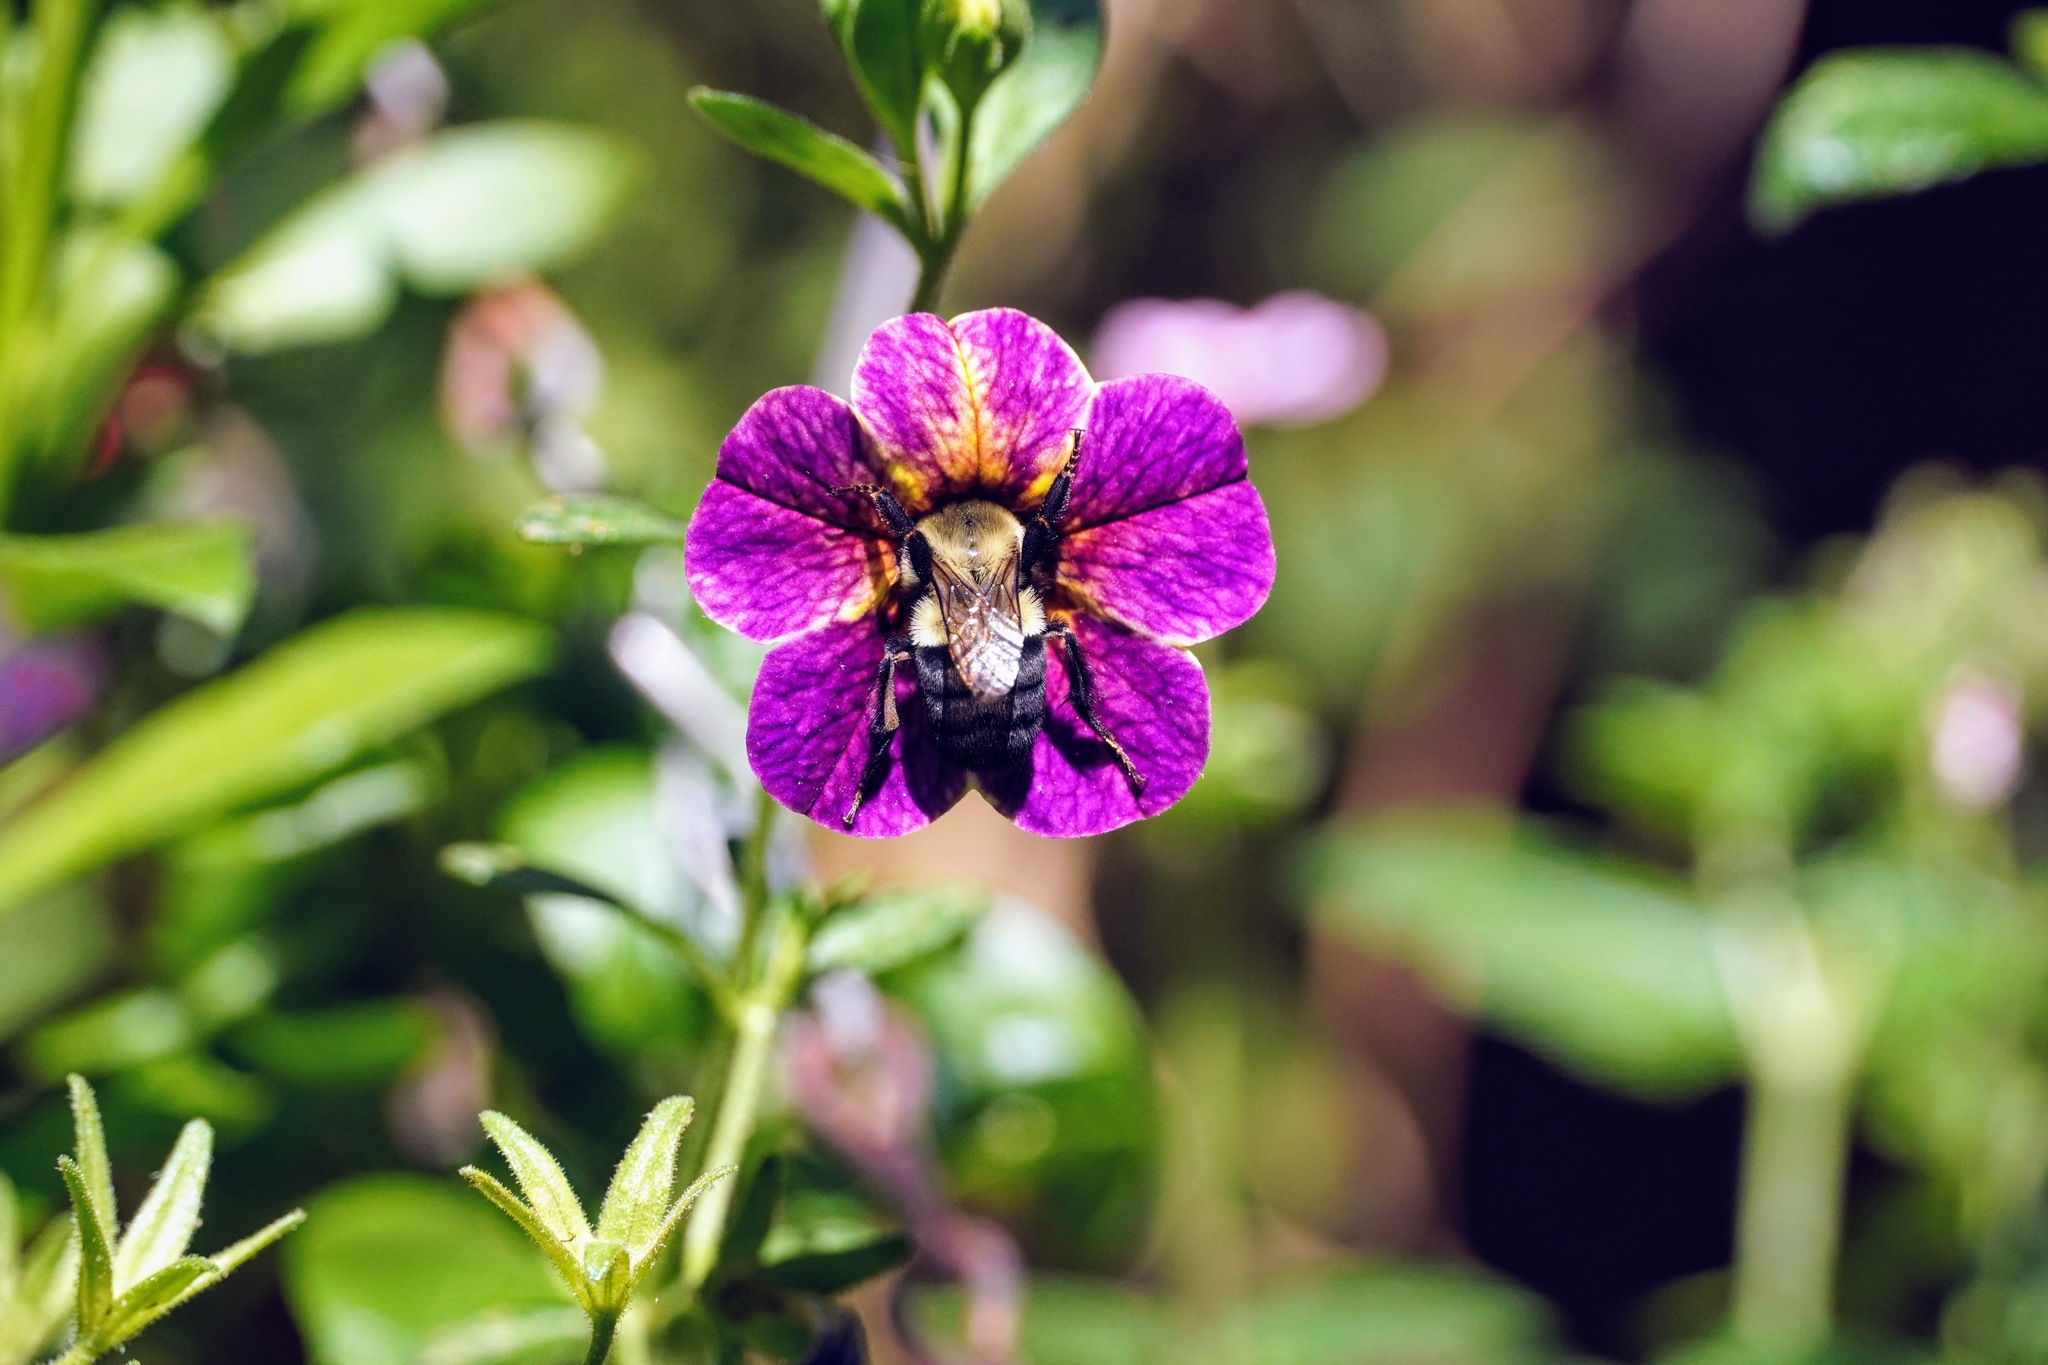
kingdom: Animalia
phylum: Arthropoda
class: Insecta
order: Hymenoptera
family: Apidae
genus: Bombus
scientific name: Bombus impatiens
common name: Common eastern bumble bee
